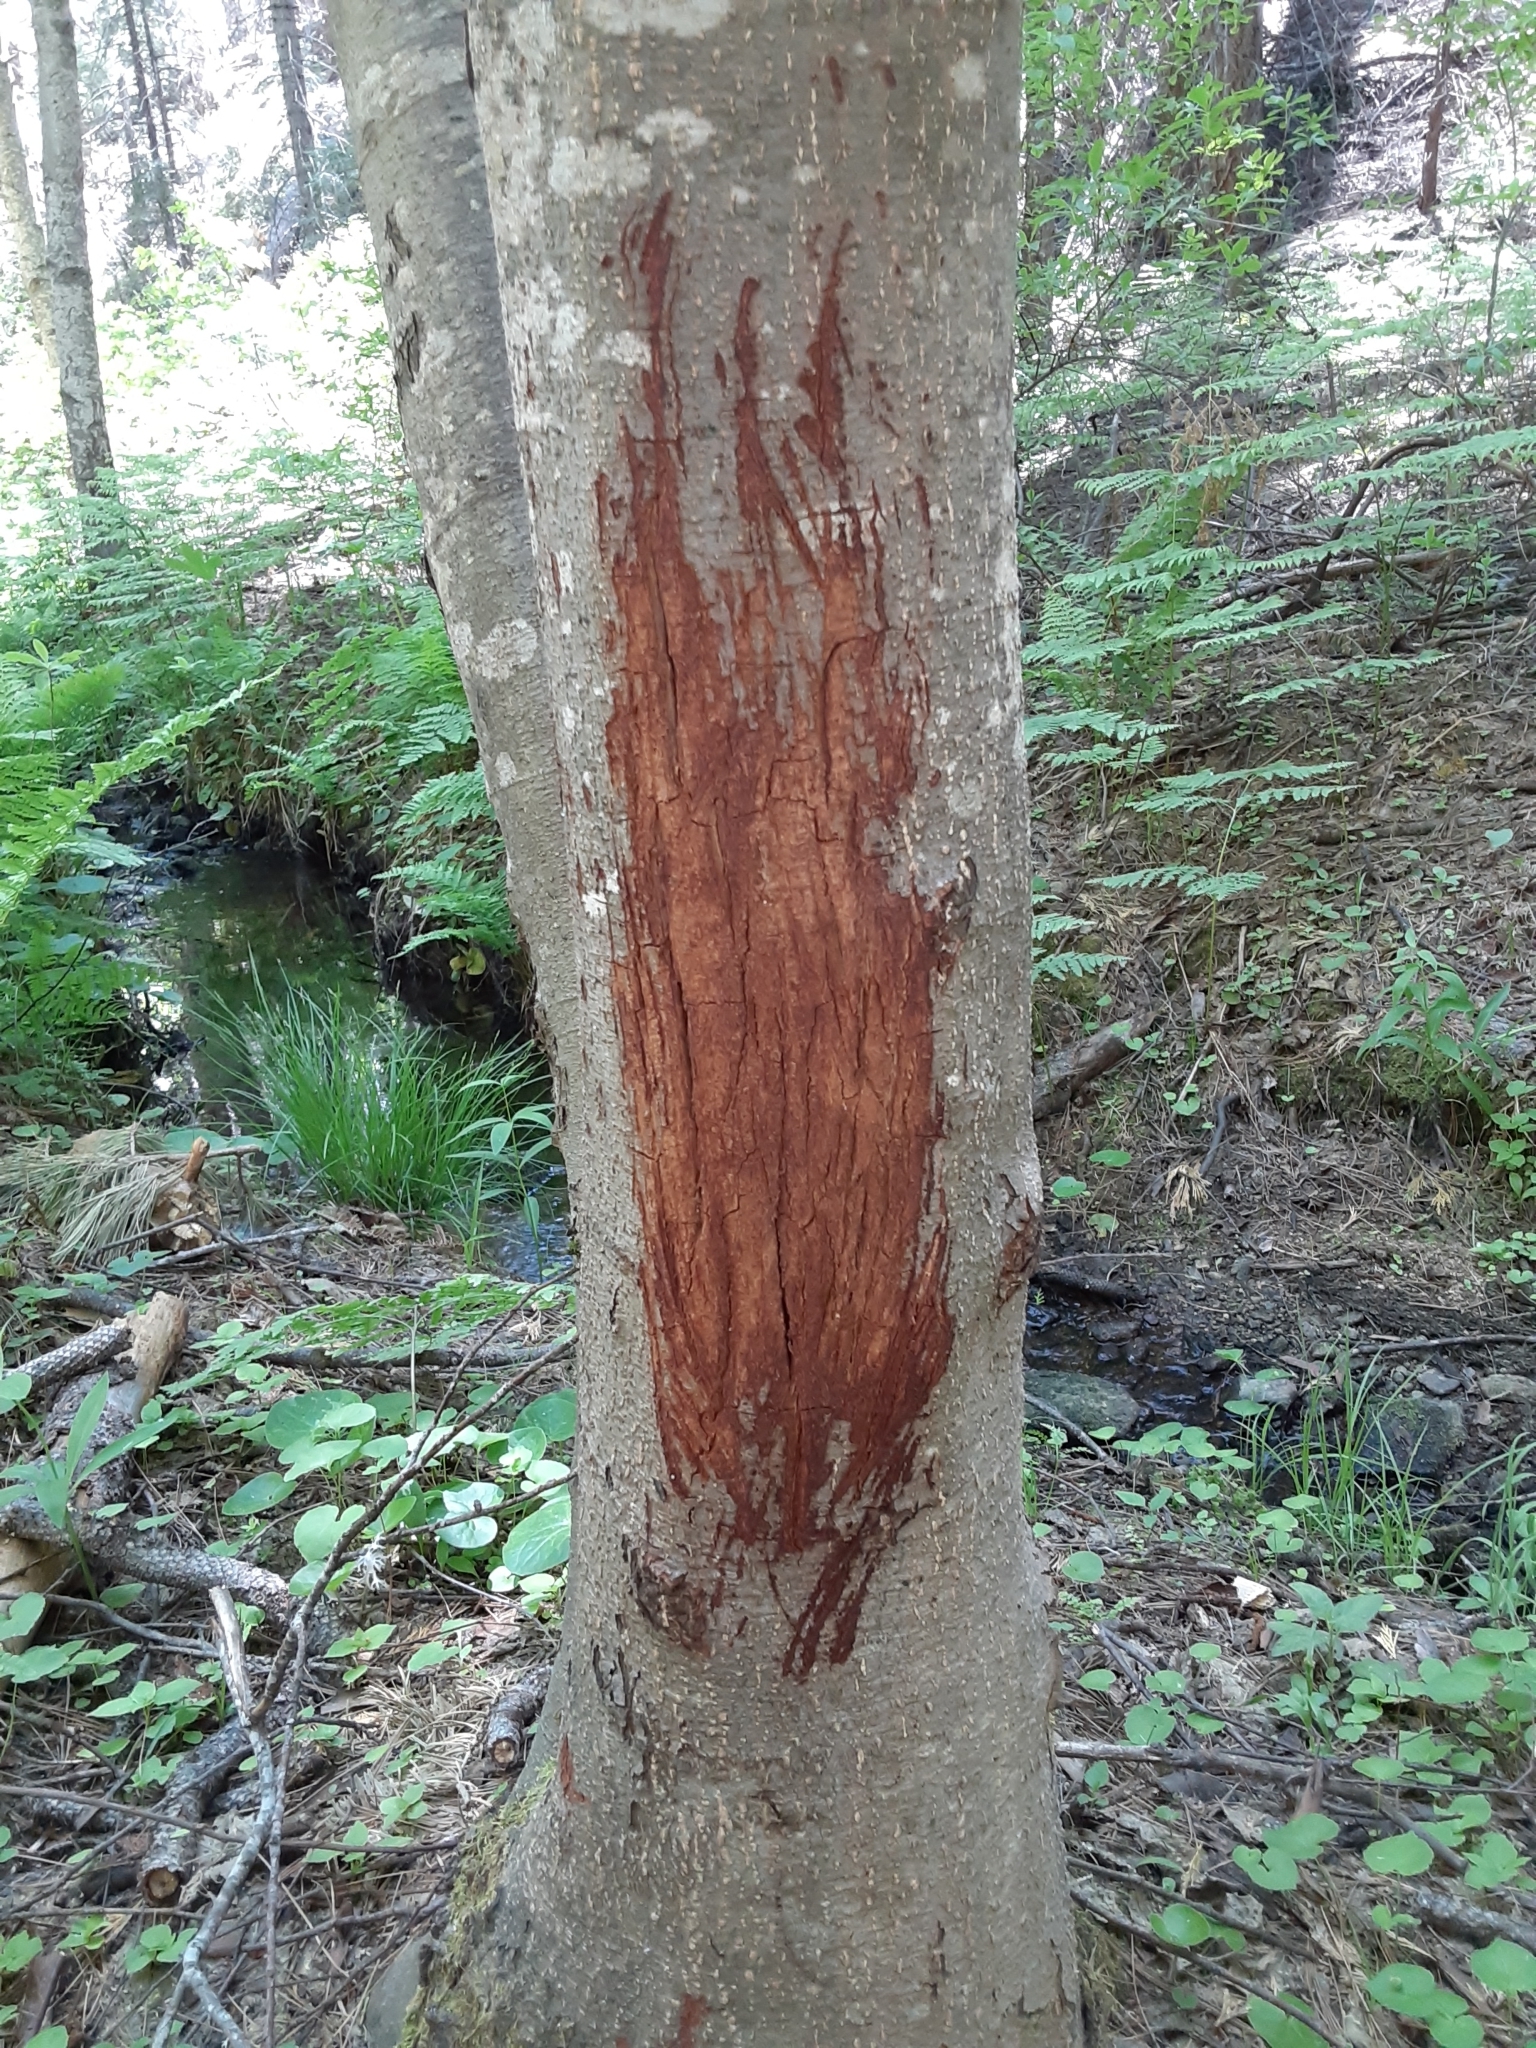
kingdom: Animalia
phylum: Chordata
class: Mammalia
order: Artiodactyla
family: Cervidae
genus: Odocoileus
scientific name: Odocoileus hemionus
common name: Mule deer
